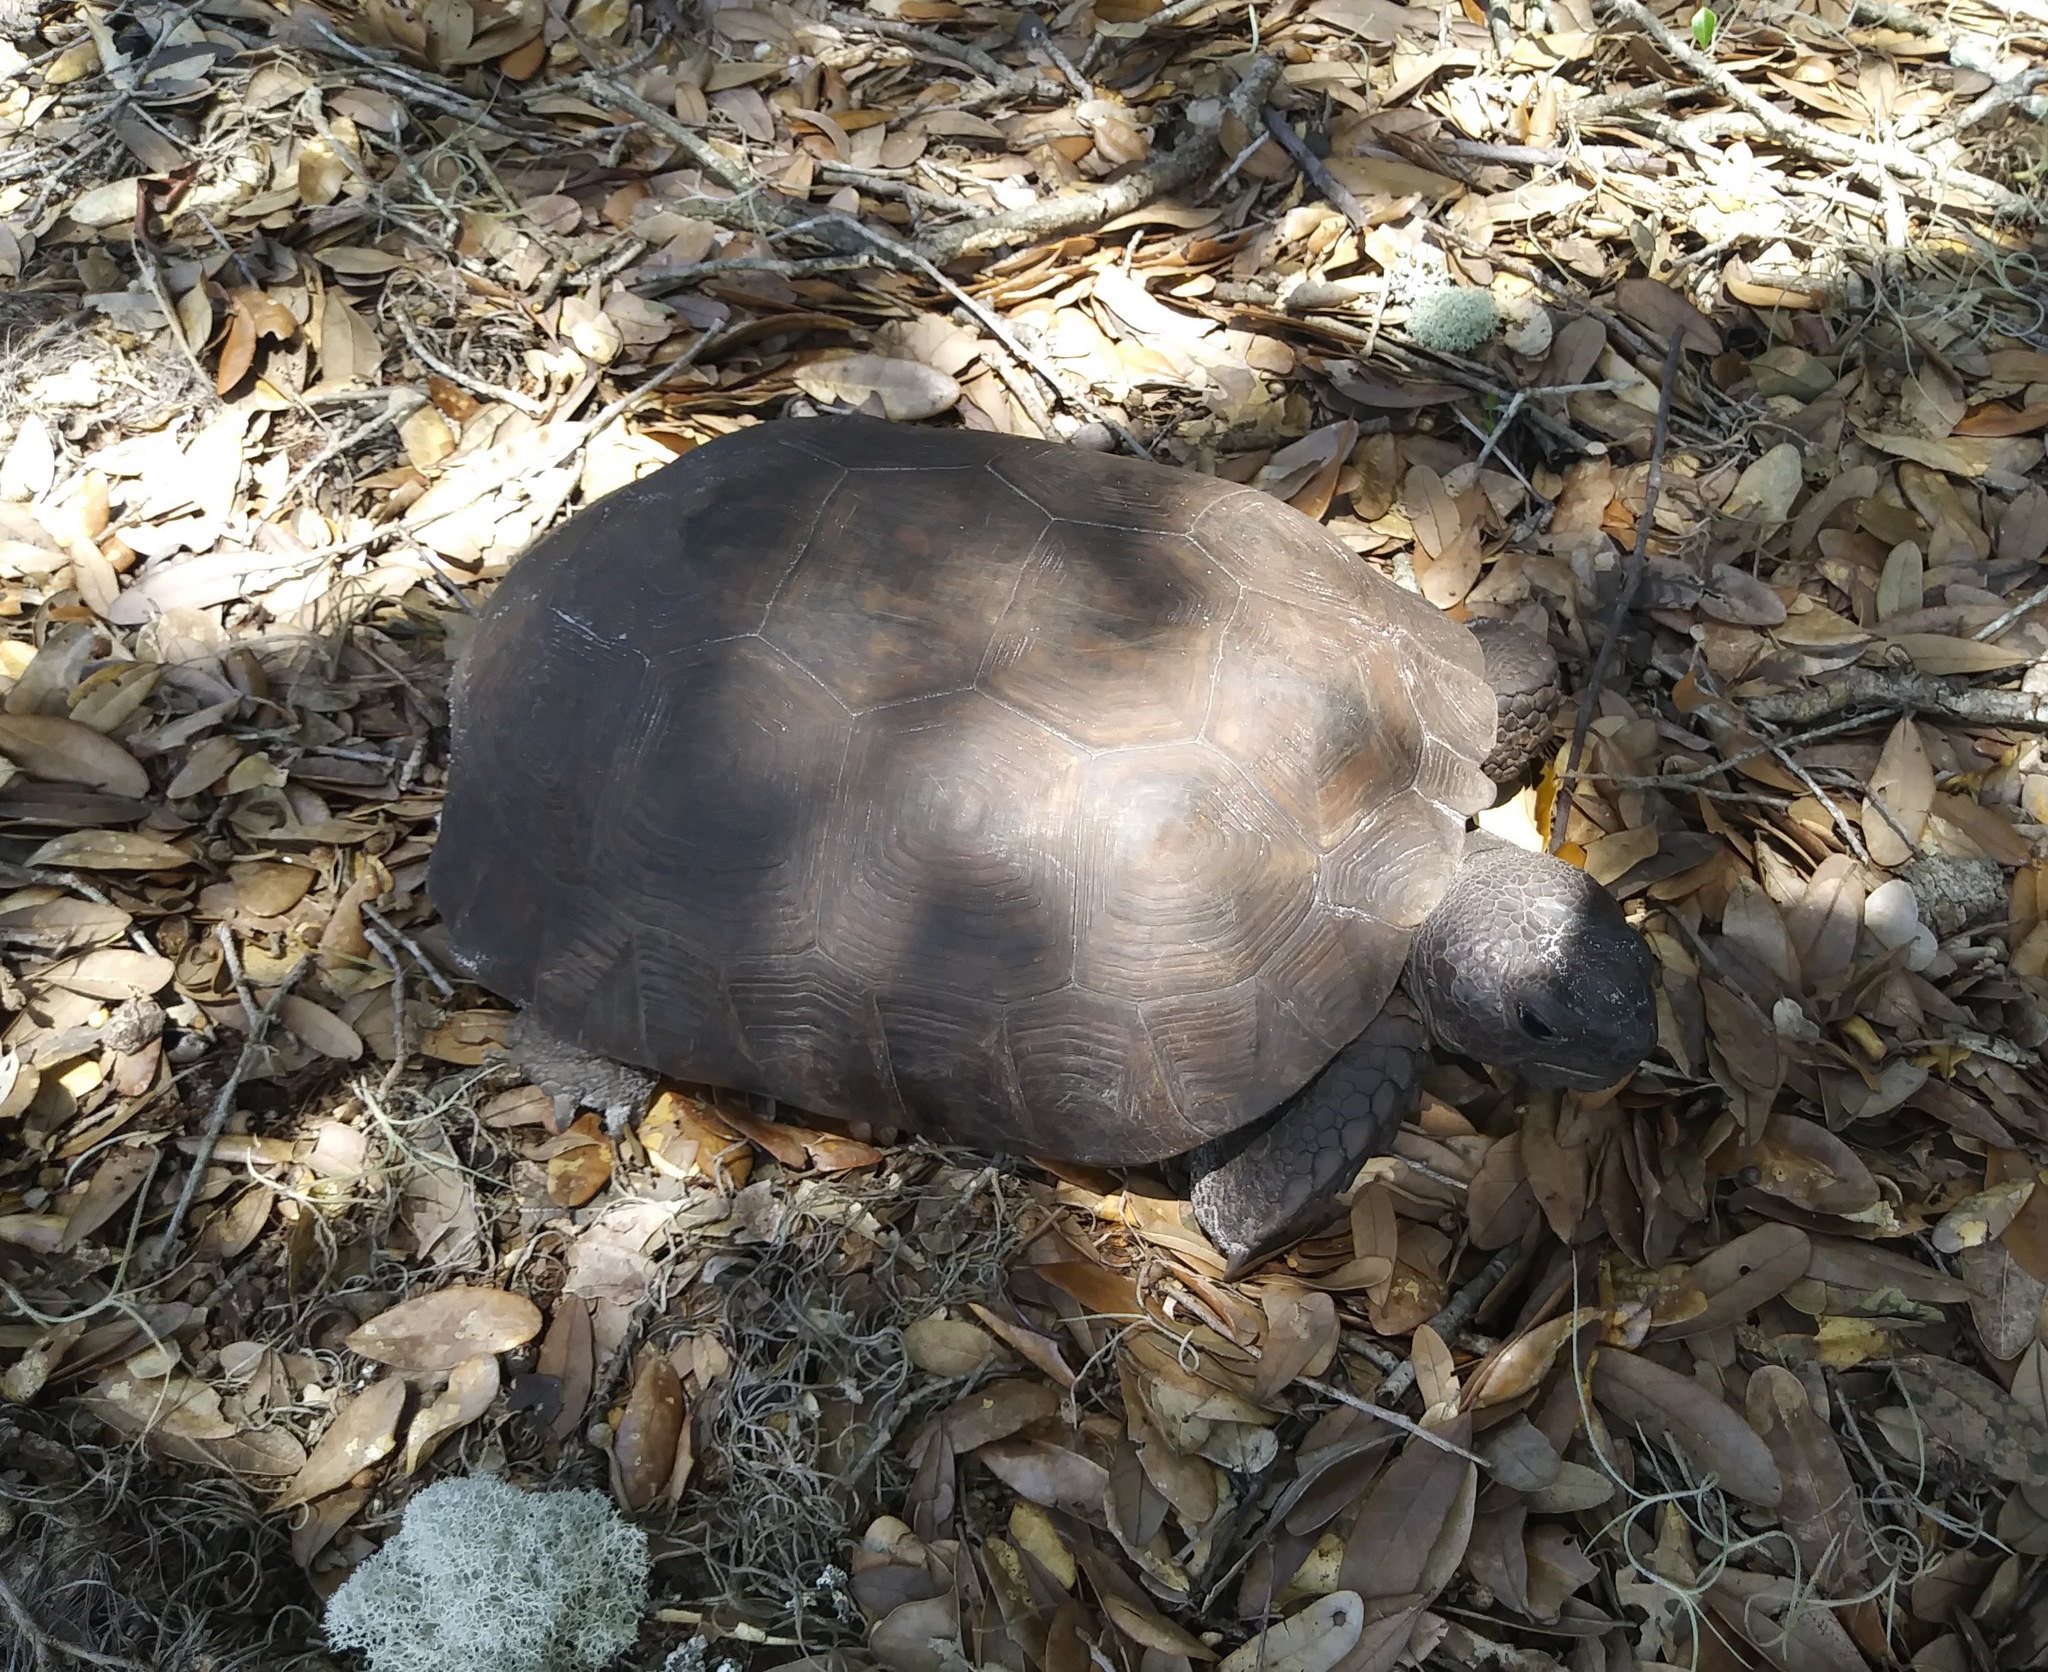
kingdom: Animalia
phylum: Chordata
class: Testudines
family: Testudinidae
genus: Gopherus
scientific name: Gopherus polyphemus
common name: Florida gopher tortoise
